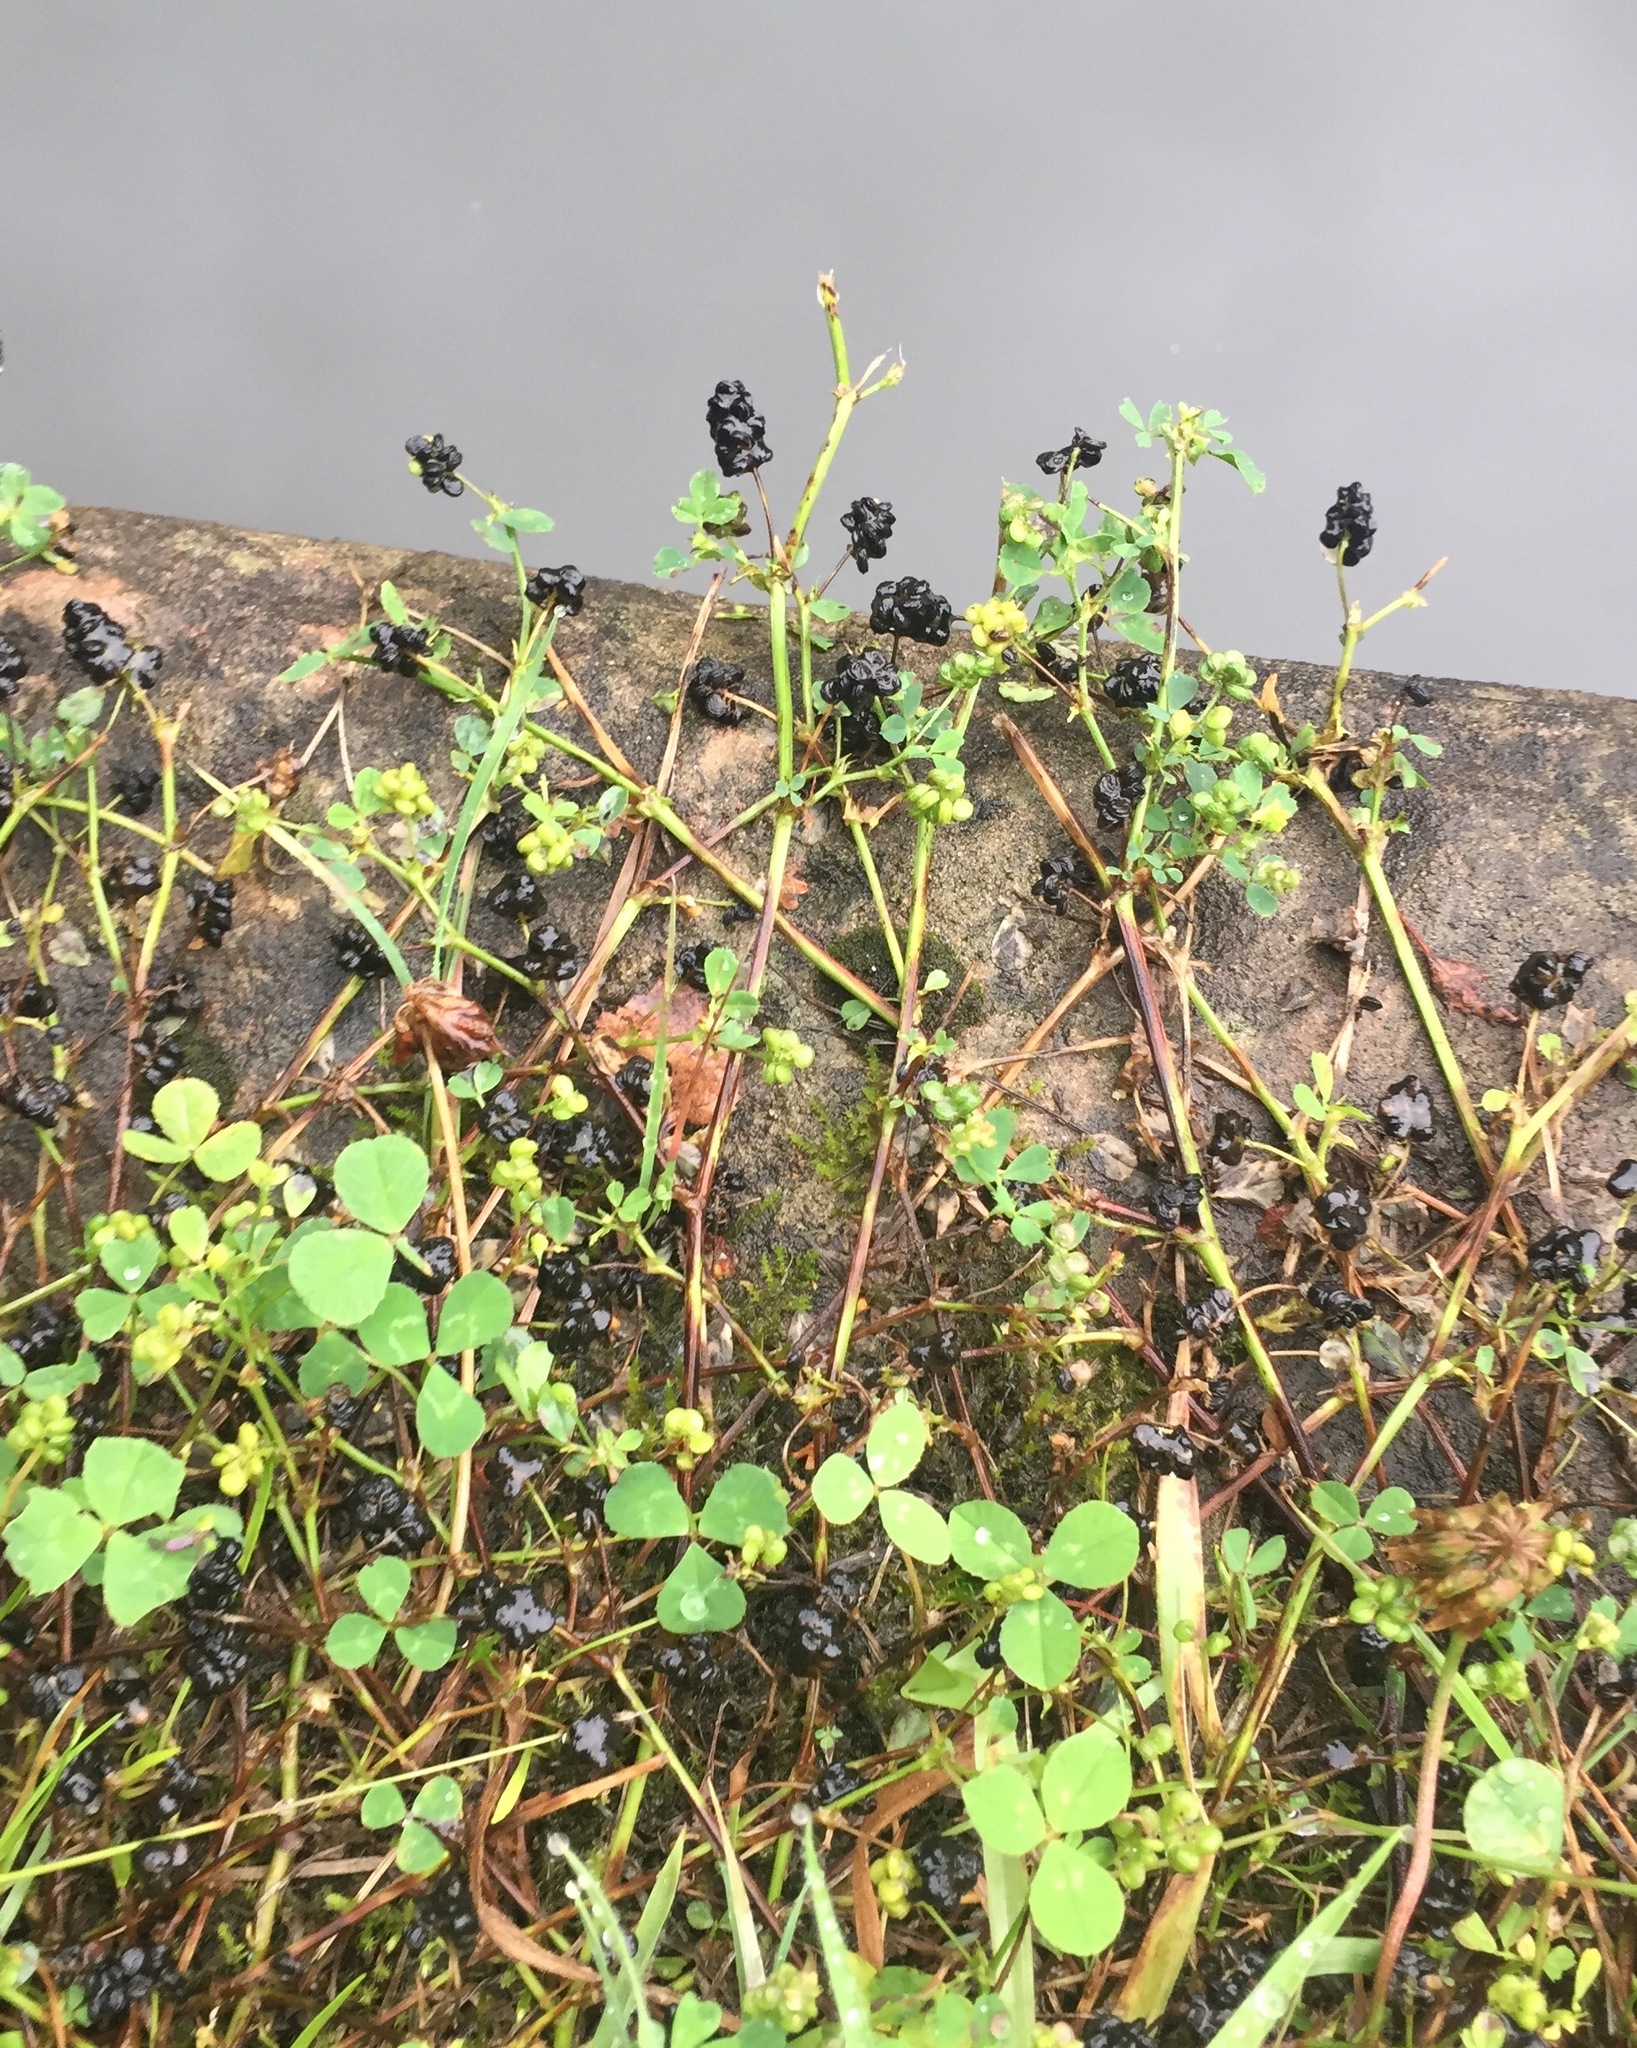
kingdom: Plantae
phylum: Tracheophyta
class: Magnoliopsida
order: Fabales
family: Fabaceae
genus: Medicago
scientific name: Medicago lupulina
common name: Black medick
